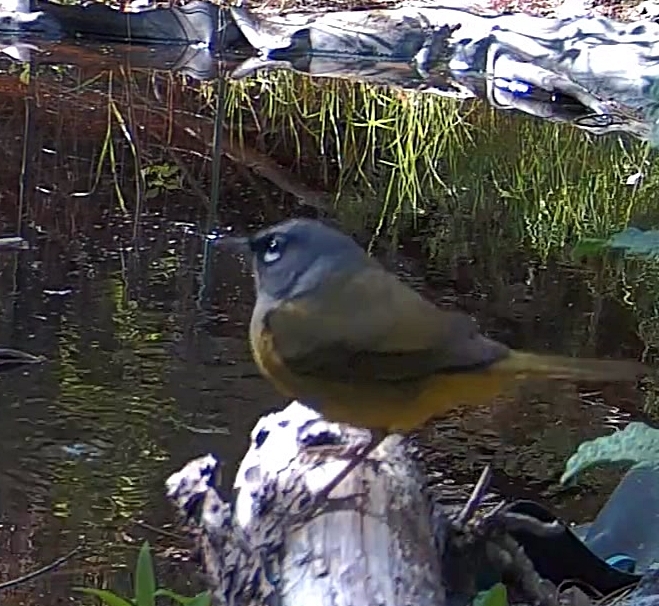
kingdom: Animalia
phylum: Chordata
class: Aves
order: Passeriformes
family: Parulidae
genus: Geothlypis
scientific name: Geothlypis tolmiei
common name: Macgillivray's warbler
